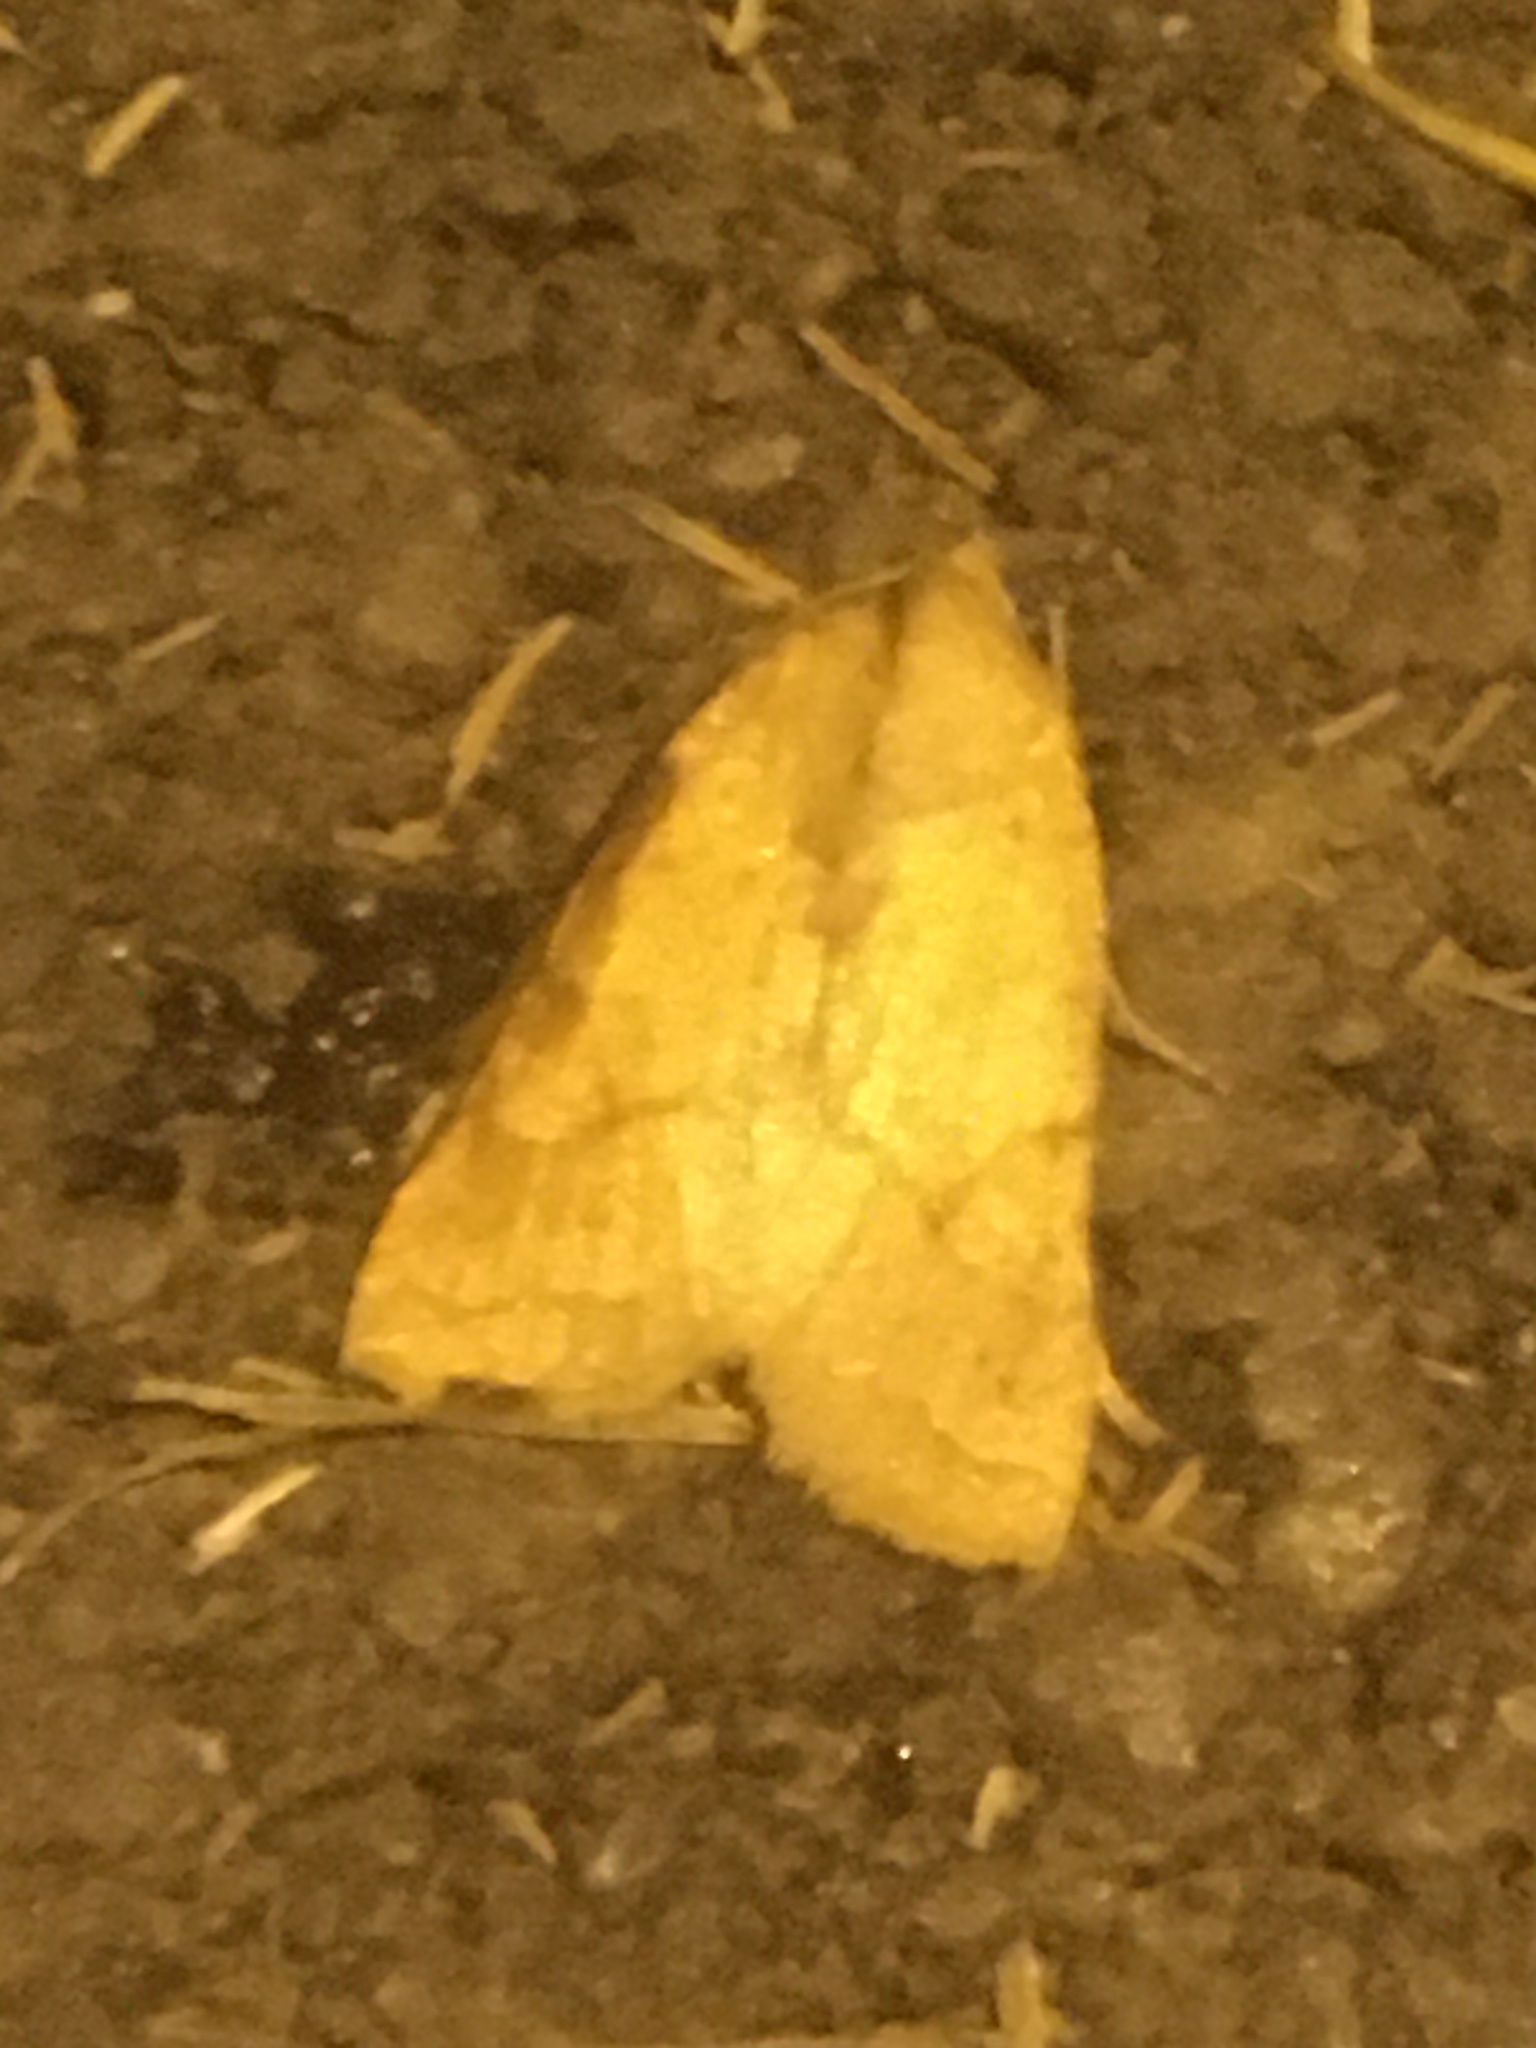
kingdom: Animalia
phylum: Arthropoda
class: Insecta
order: Lepidoptera
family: Noctuidae
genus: Jodia
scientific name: Jodia croceago
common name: Orange upperwing
